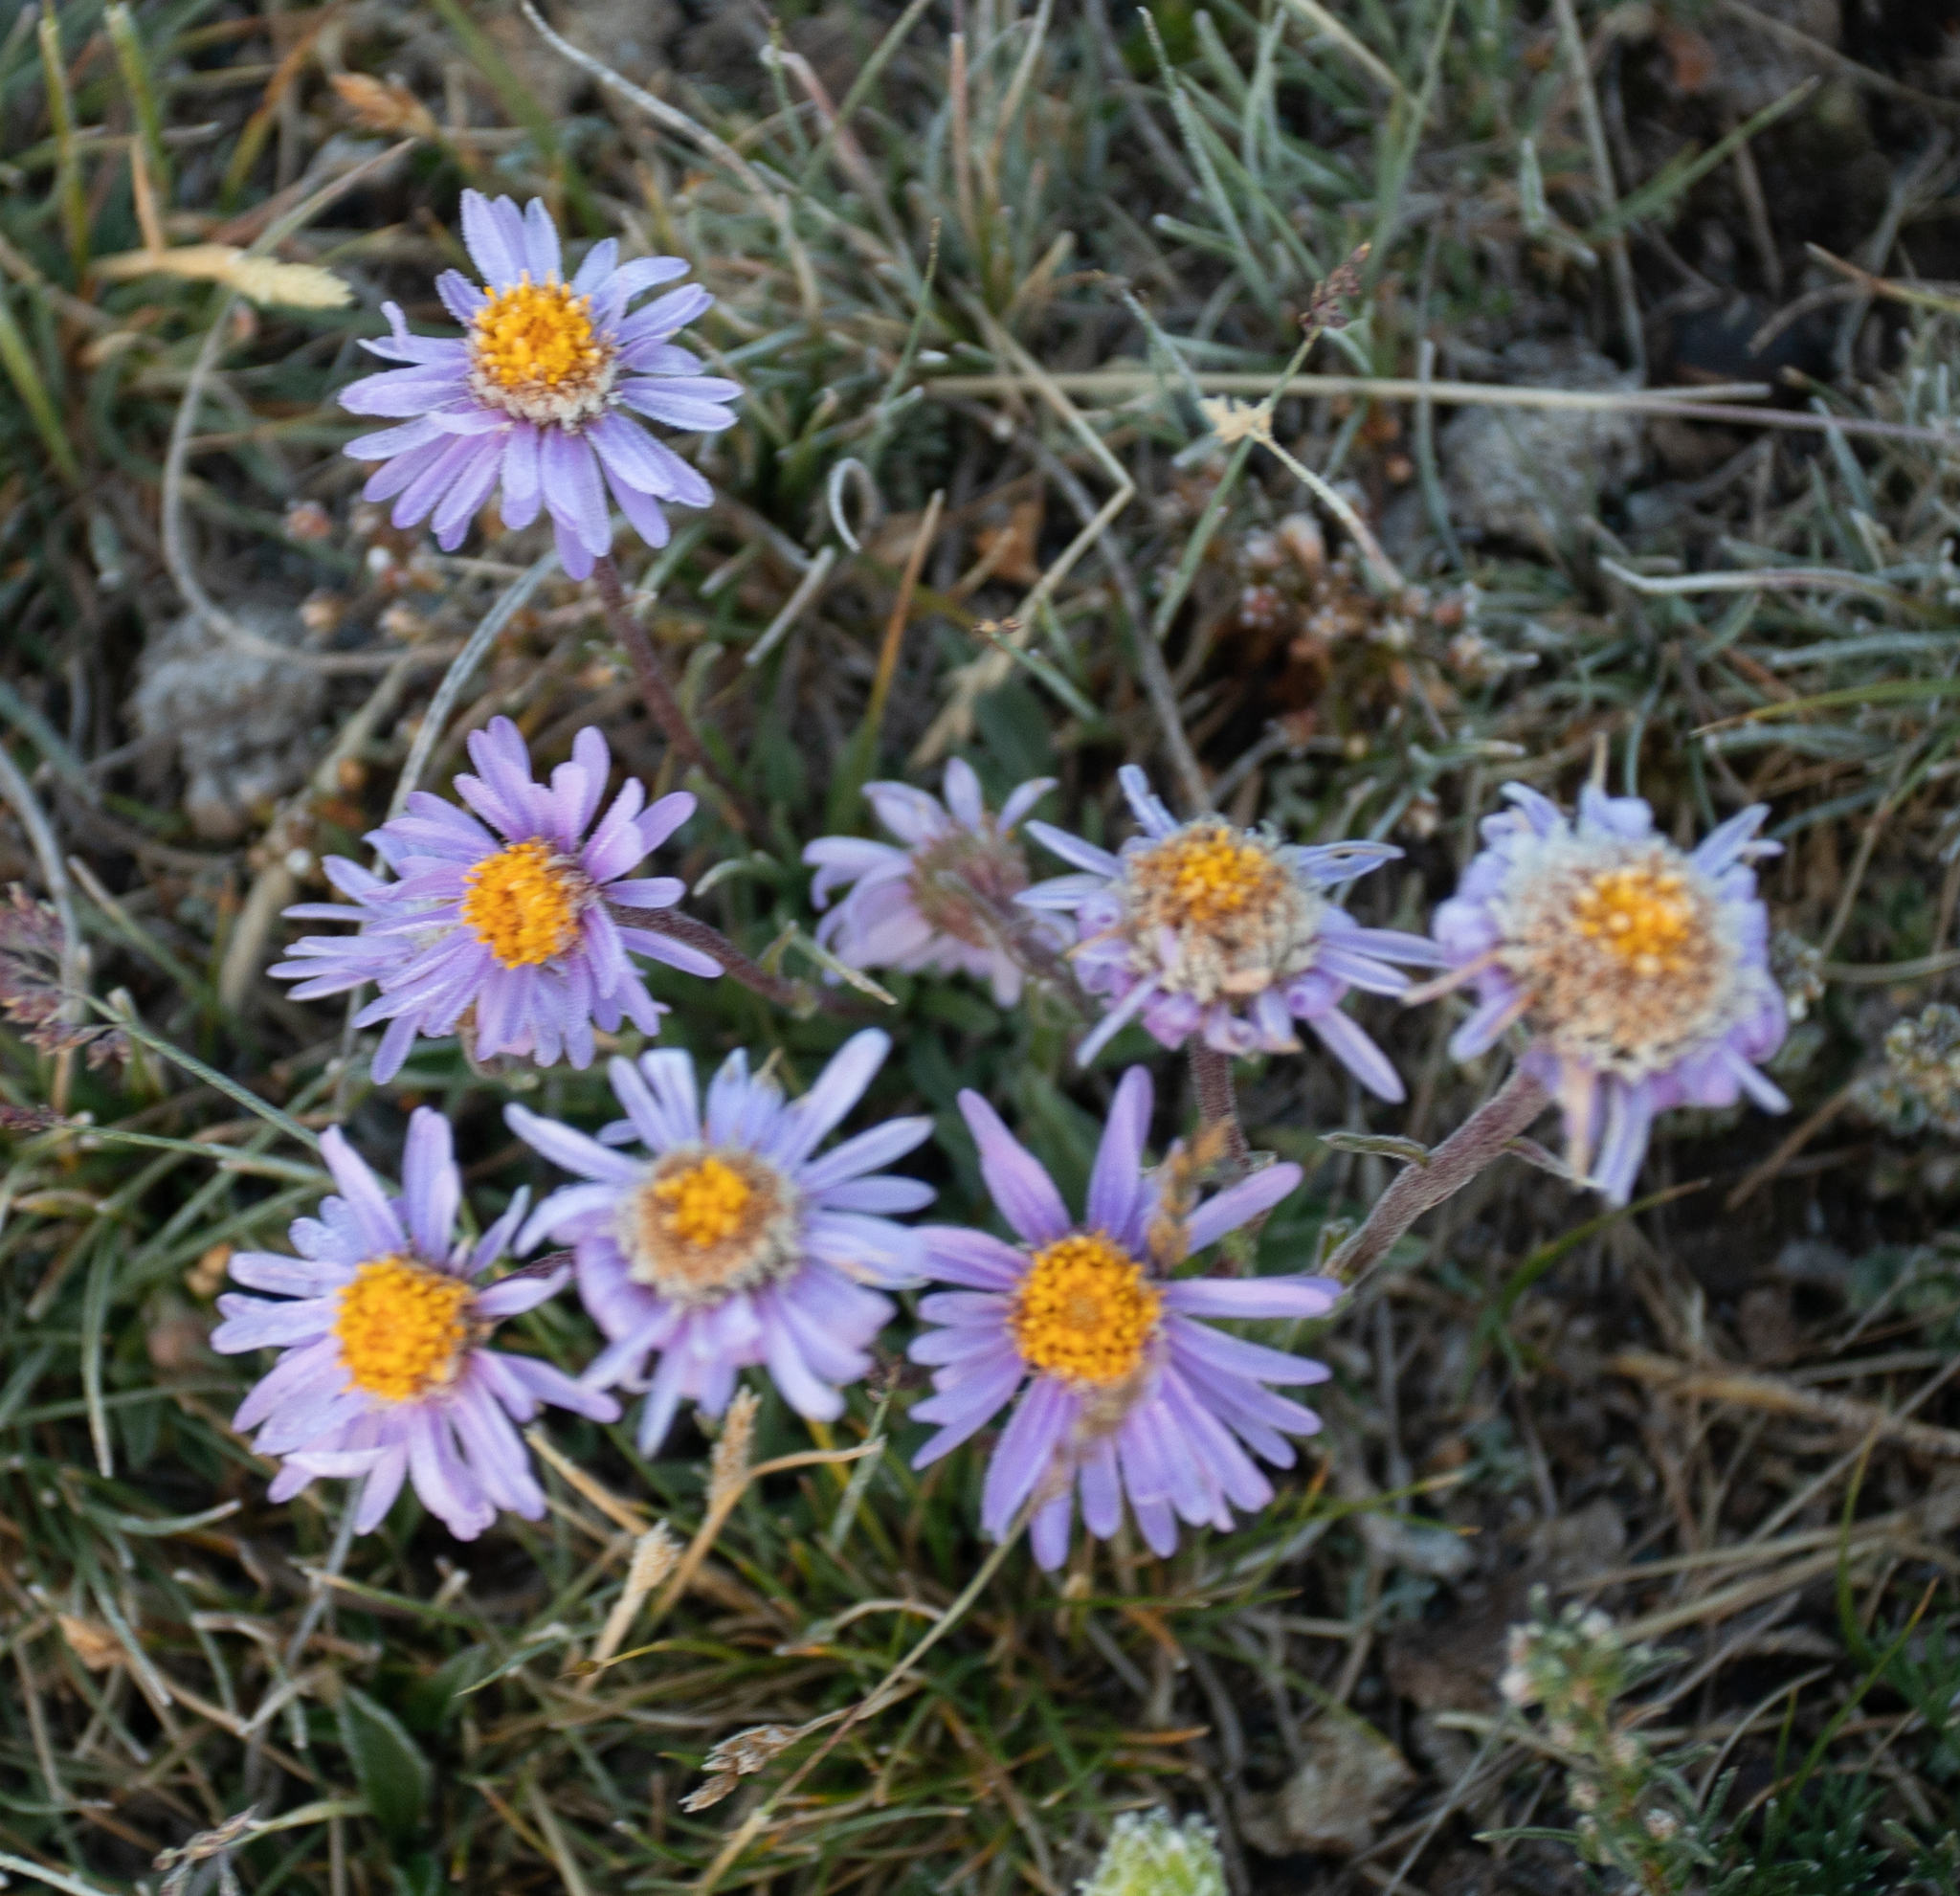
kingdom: Plantae
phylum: Tracheophyta
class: Magnoliopsida
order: Asterales
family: Asteraceae
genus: Aster
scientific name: Aster alpinus
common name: Alpine aster
